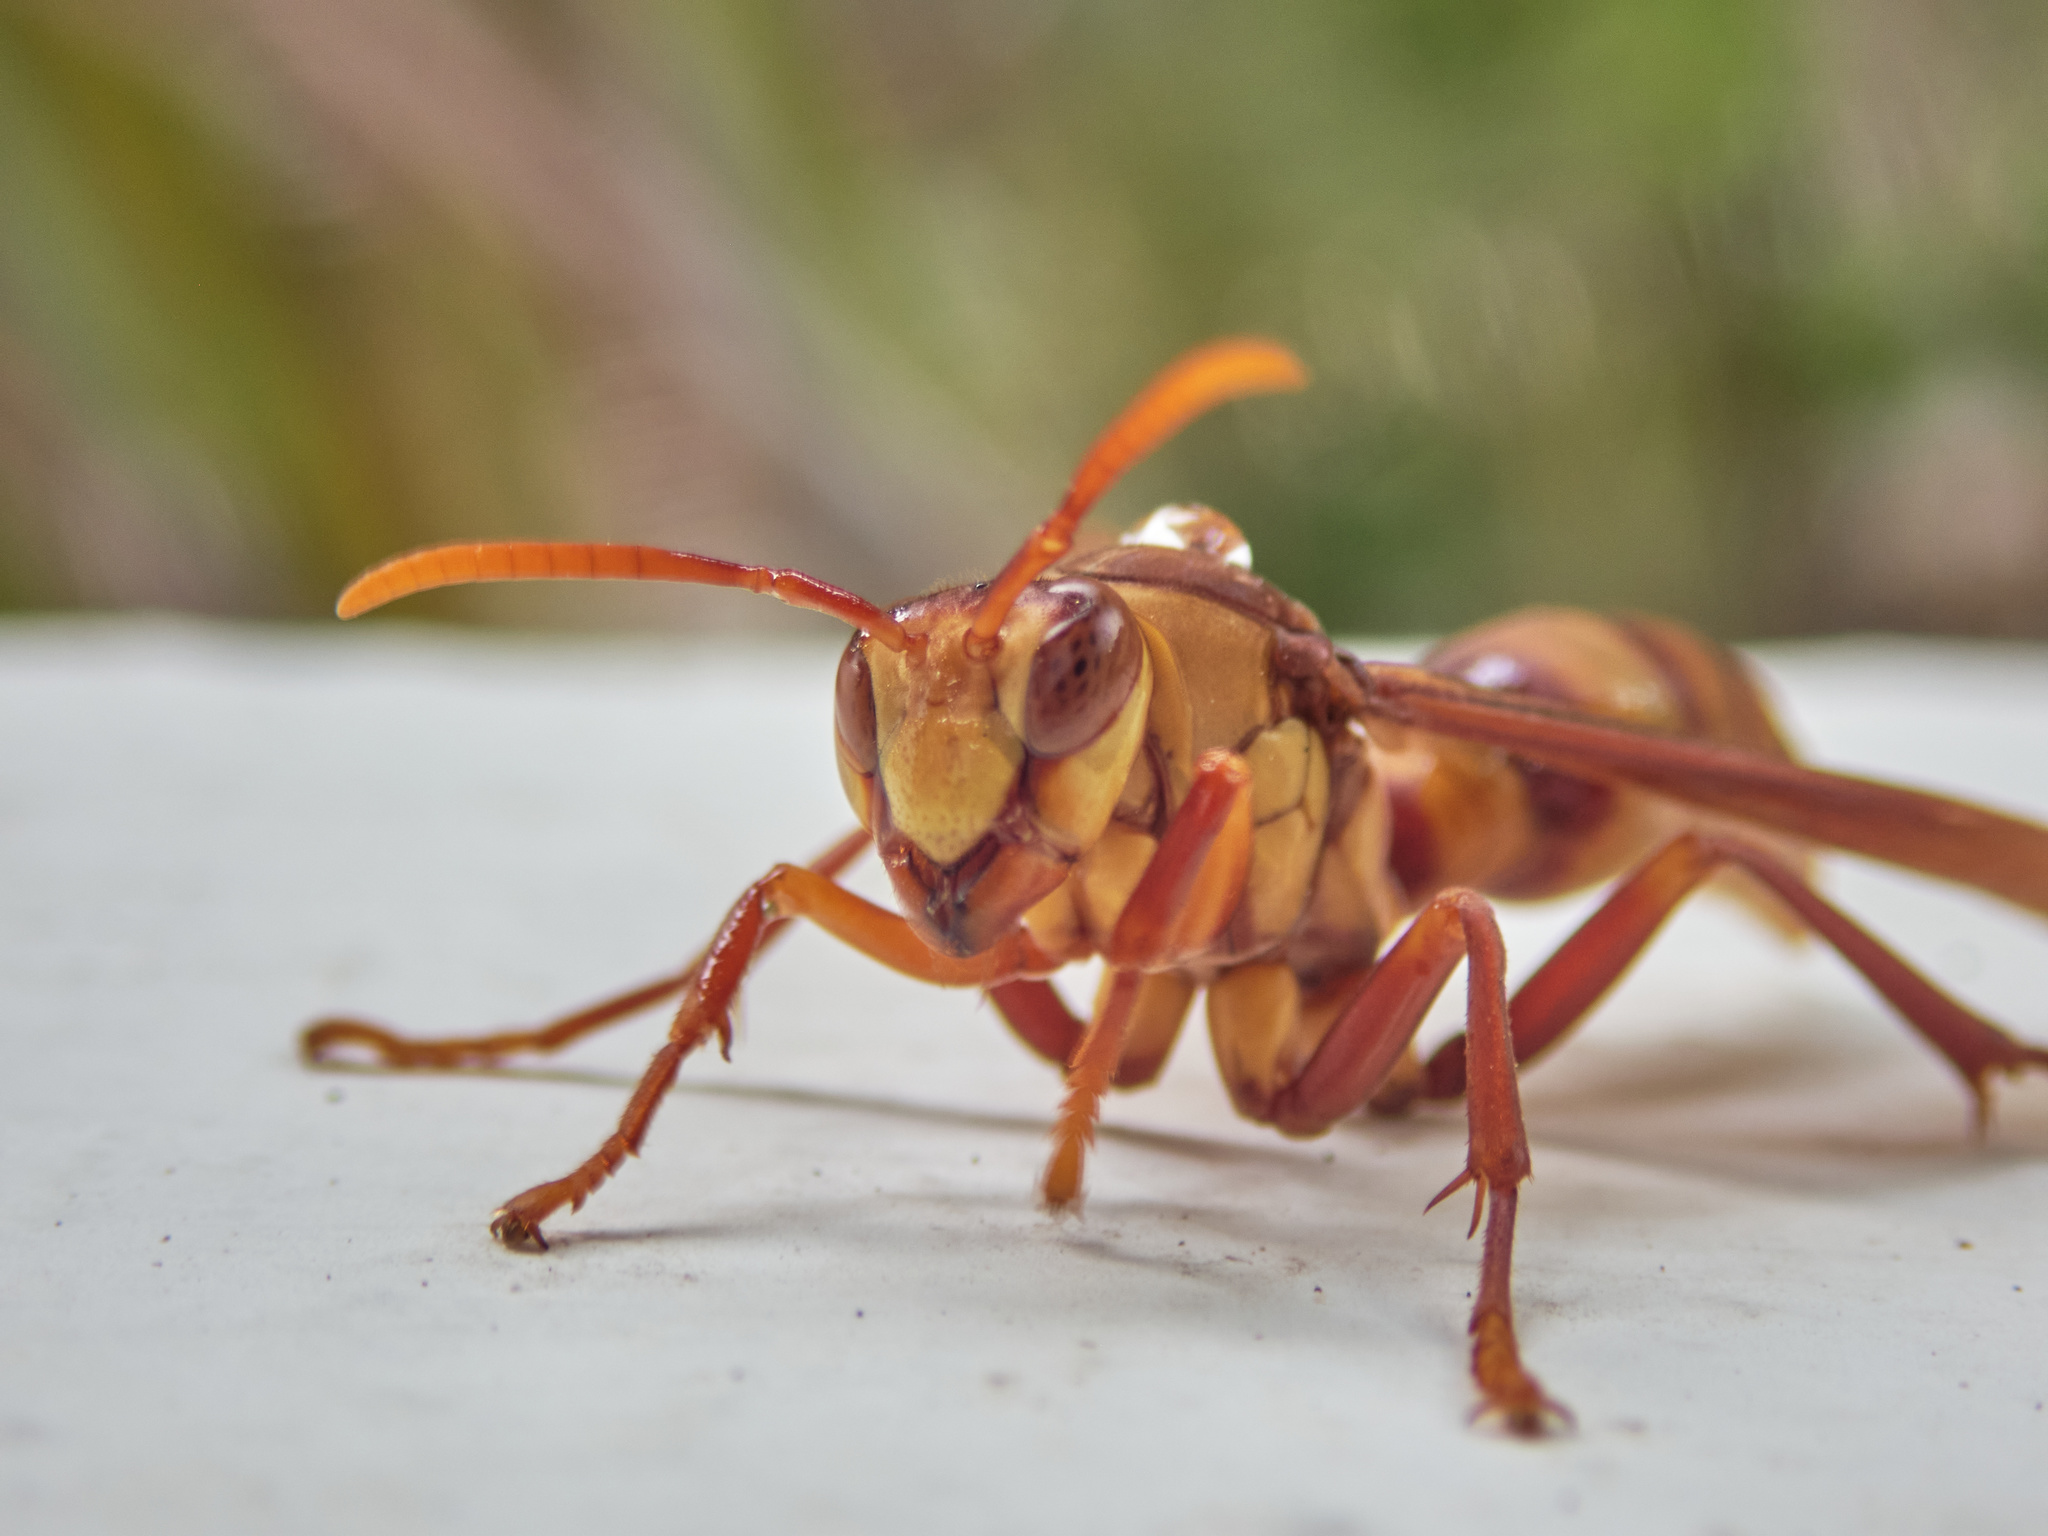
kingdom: Animalia
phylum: Arthropoda
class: Insecta
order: Hymenoptera
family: Eumenidae
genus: Polistes
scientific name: Polistes carnifex
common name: Paper wasp
